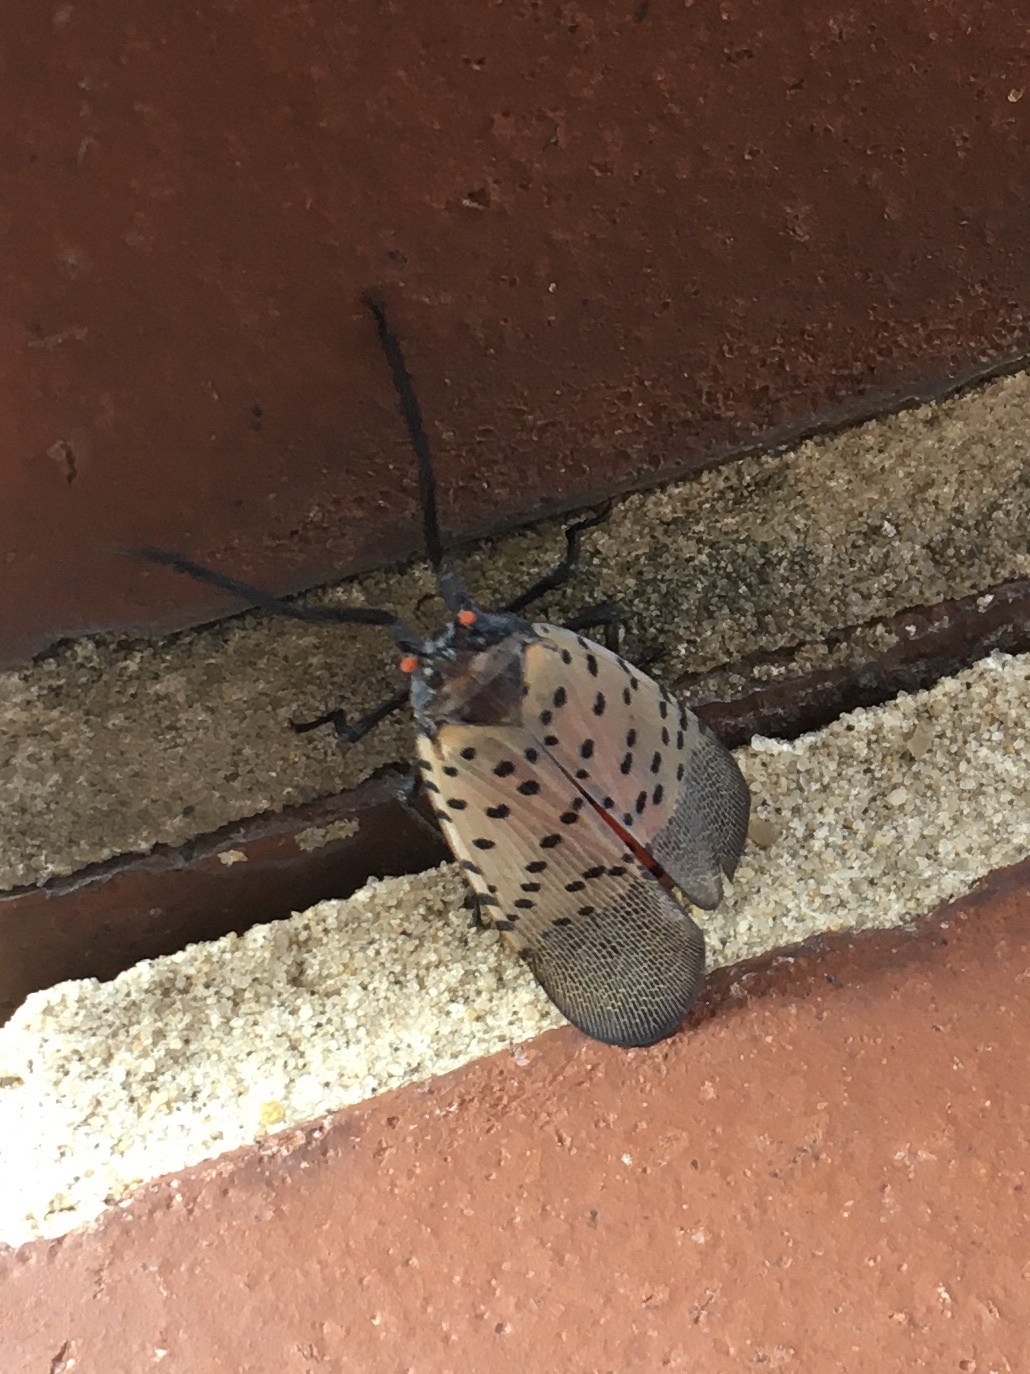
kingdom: Animalia
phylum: Arthropoda
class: Insecta
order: Hemiptera
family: Fulgoridae
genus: Lycorma
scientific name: Lycorma delicatula
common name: Spotted lanternfly
